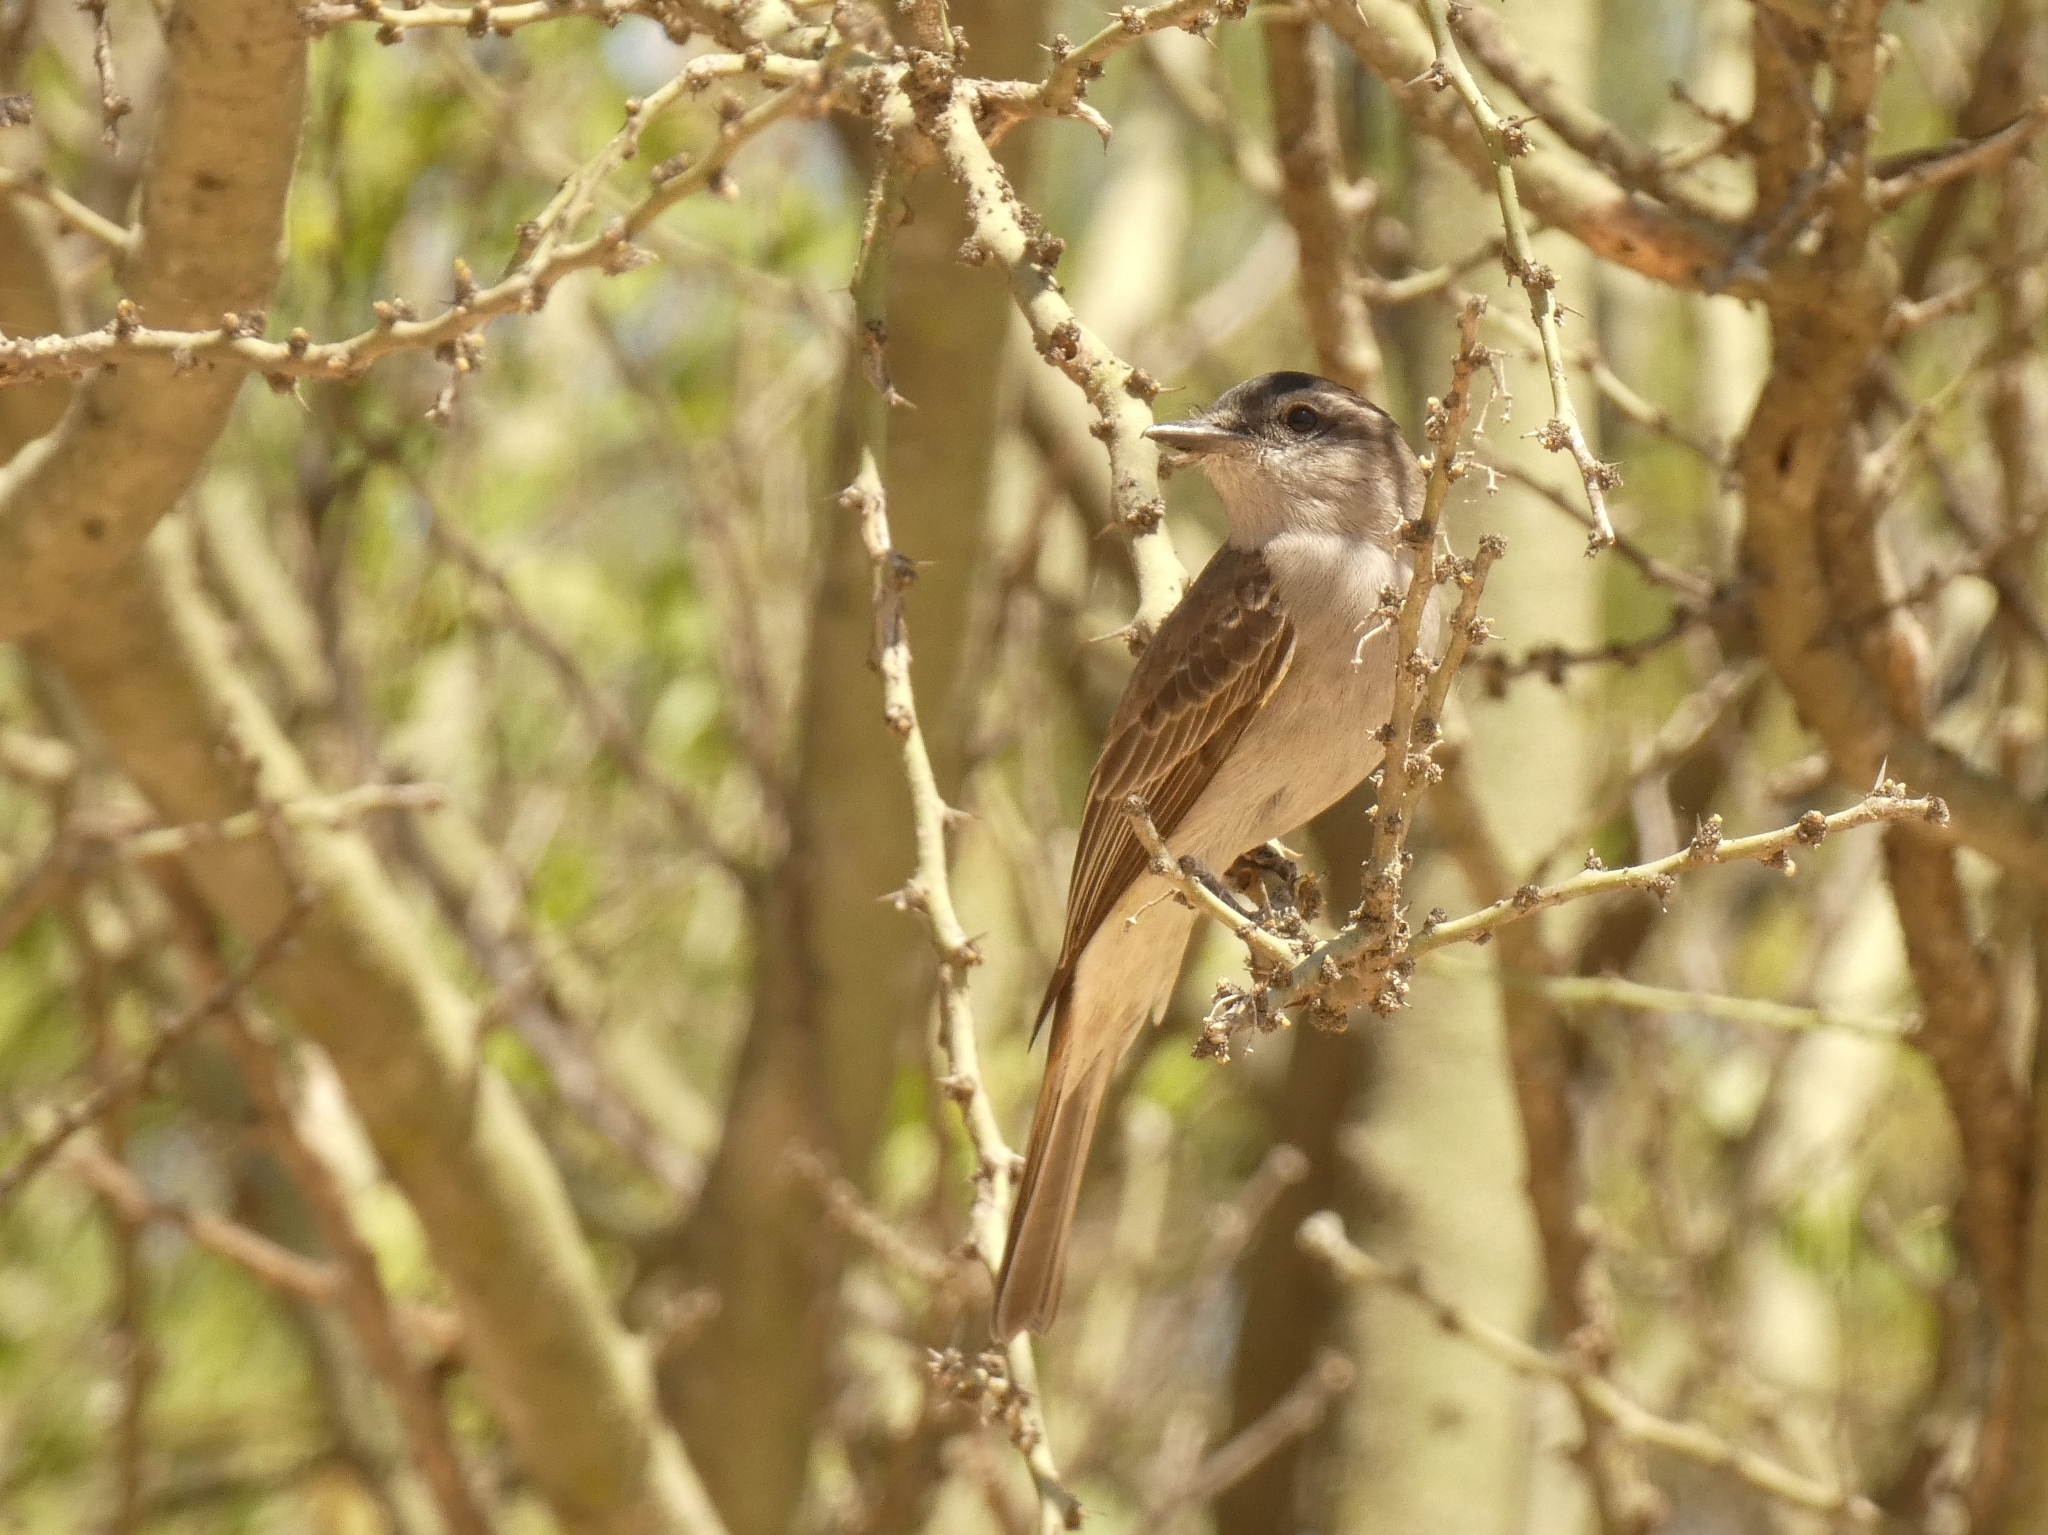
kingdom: Animalia
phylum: Chordata
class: Aves
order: Passeriformes
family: Tyrannidae
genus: Empidonomus
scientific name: Empidonomus aurantioatrocristatus
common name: Crowned slaty flycatcher
